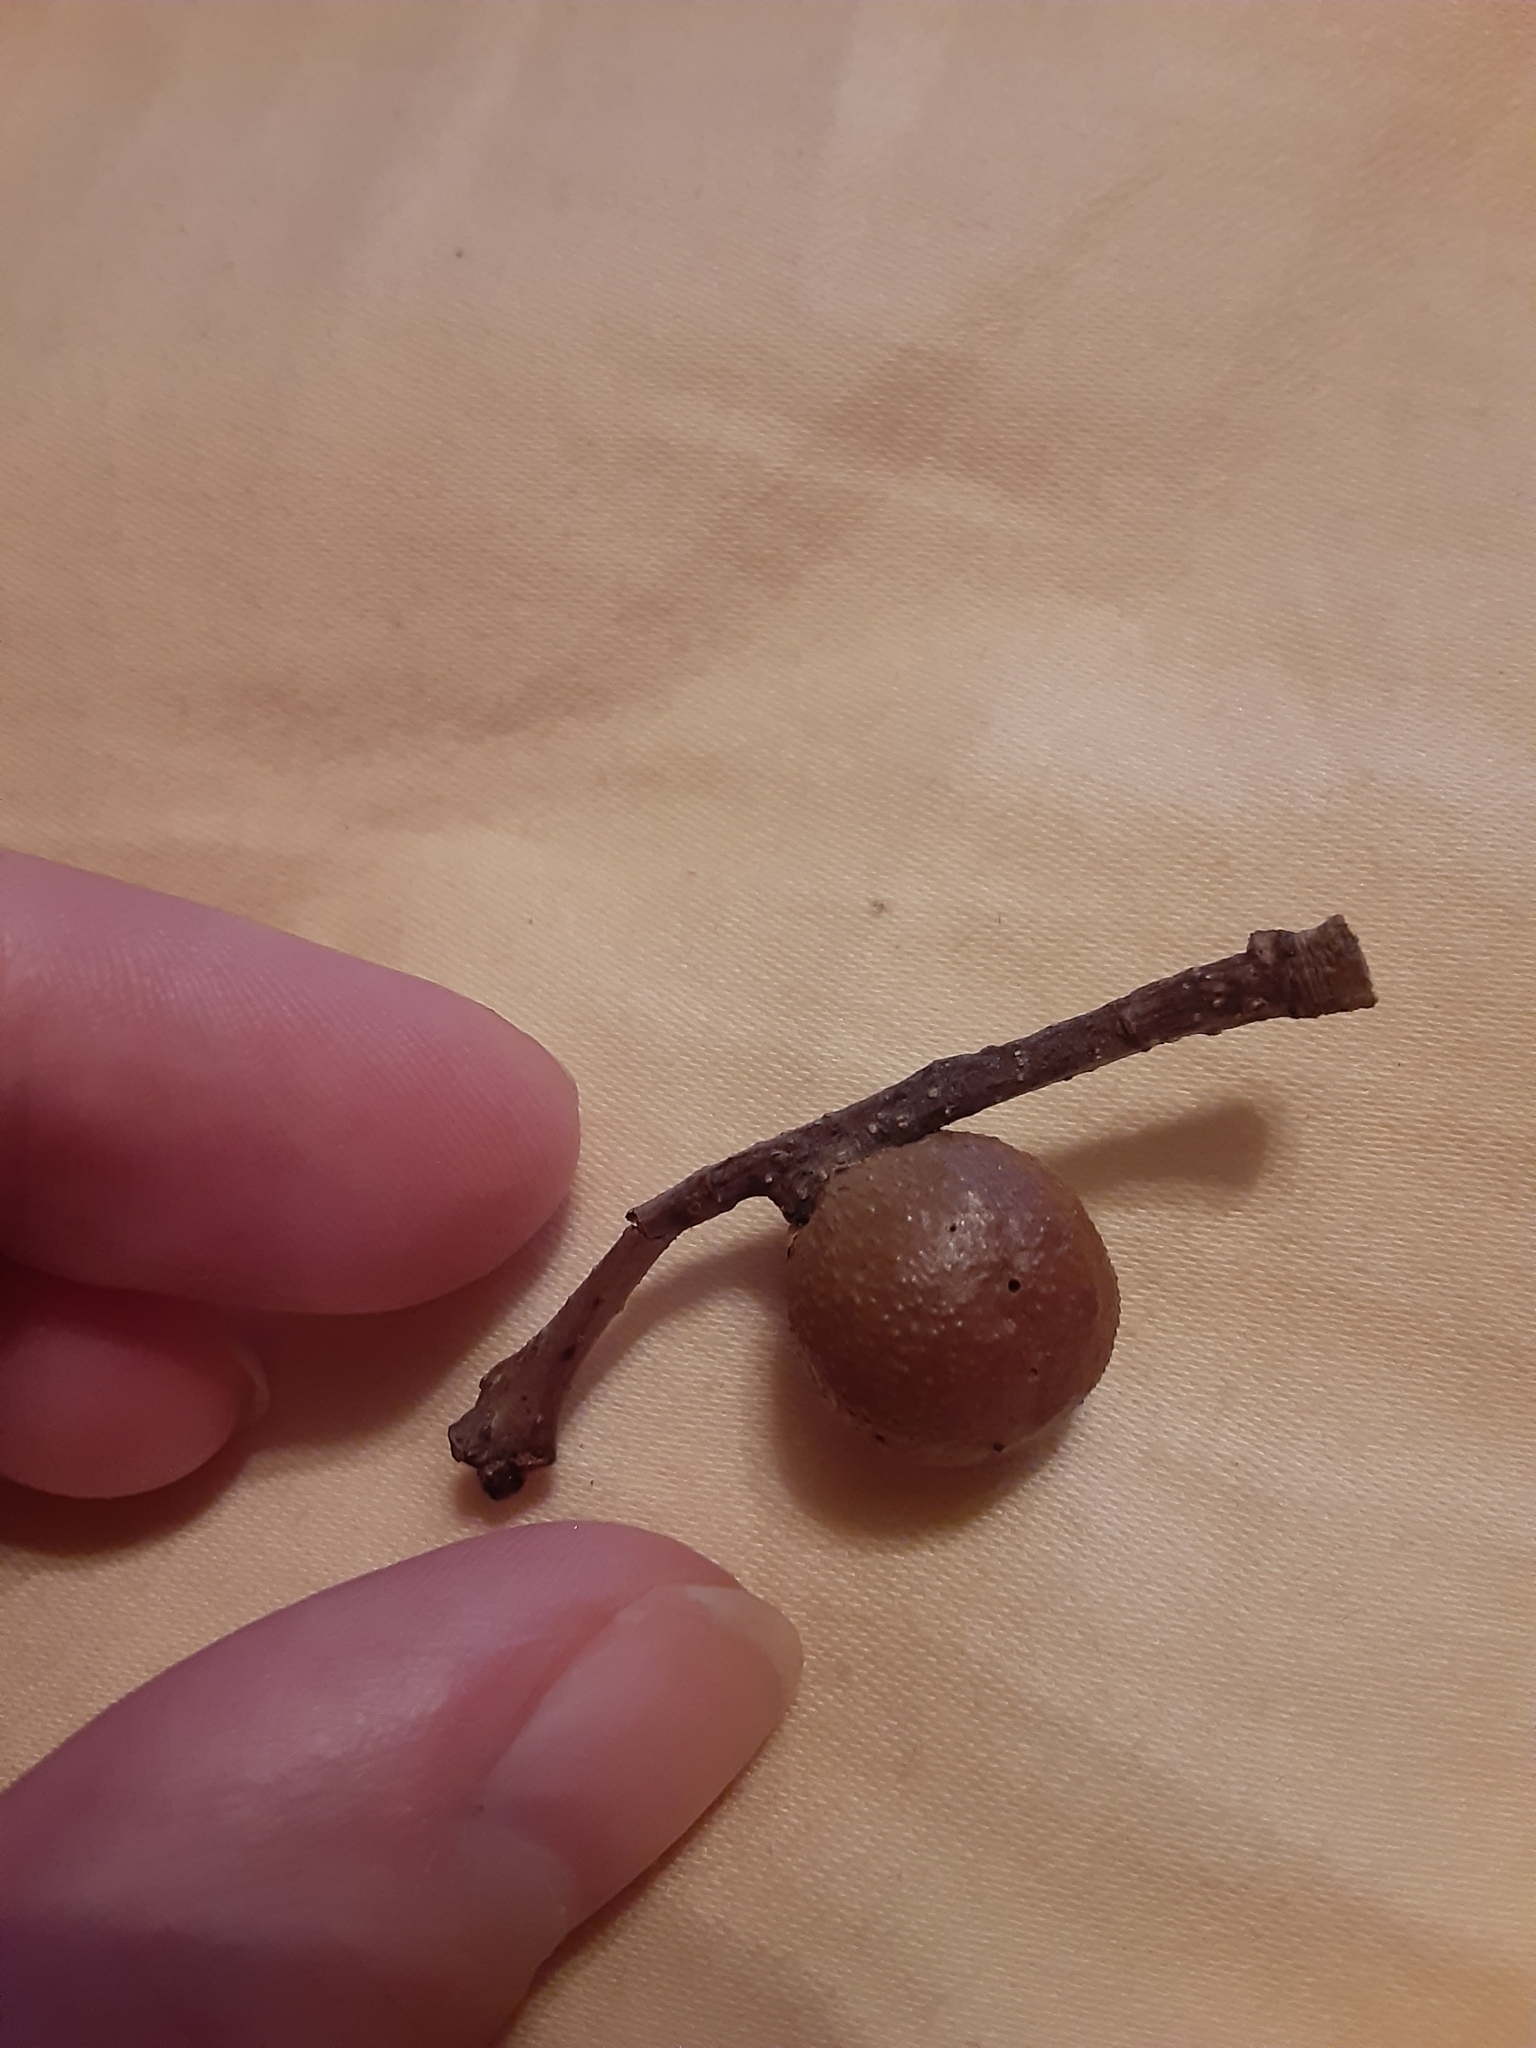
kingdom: Animalia
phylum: Arthropoda
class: Insecta
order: Hymenoptera
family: Cynipidae
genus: Disholcaspis
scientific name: Disholcaspis quercusglobulus
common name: Round bullet gall wasp
